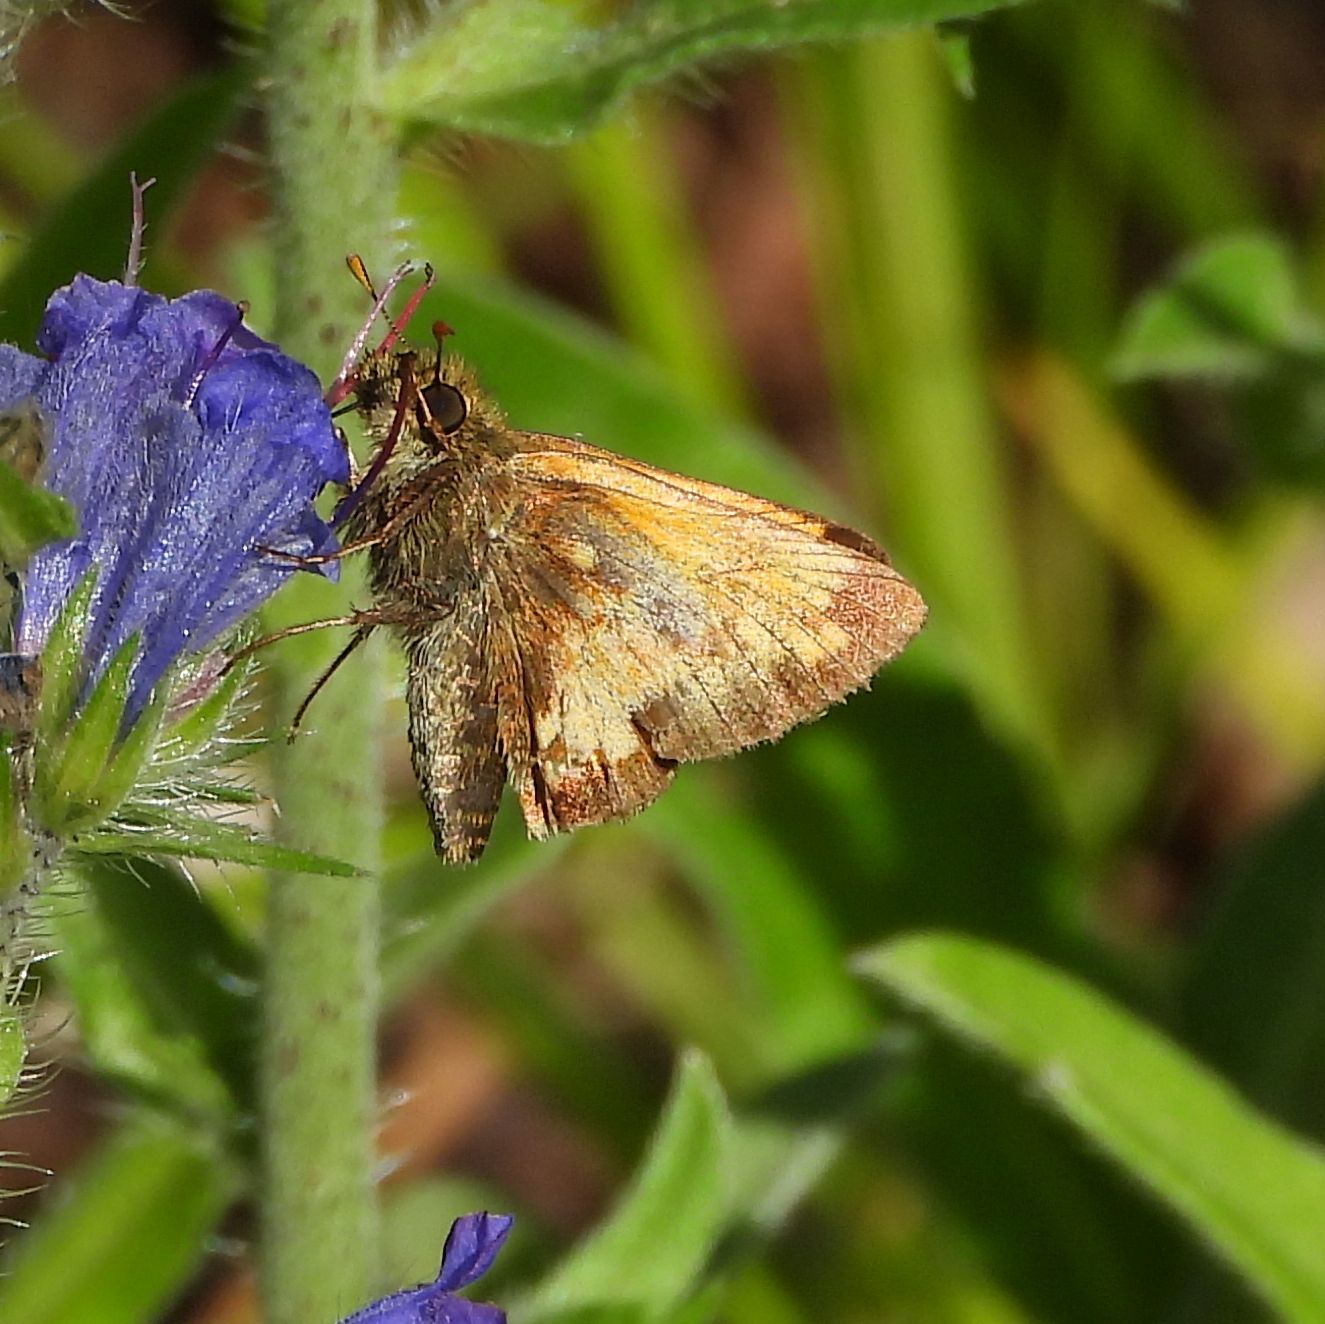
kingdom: Animalia
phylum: Arthropoda
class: Insecta
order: Lepidoptera
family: Hesperiidae
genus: Lon
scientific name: Lon hobomok
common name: Hobomok skipper
